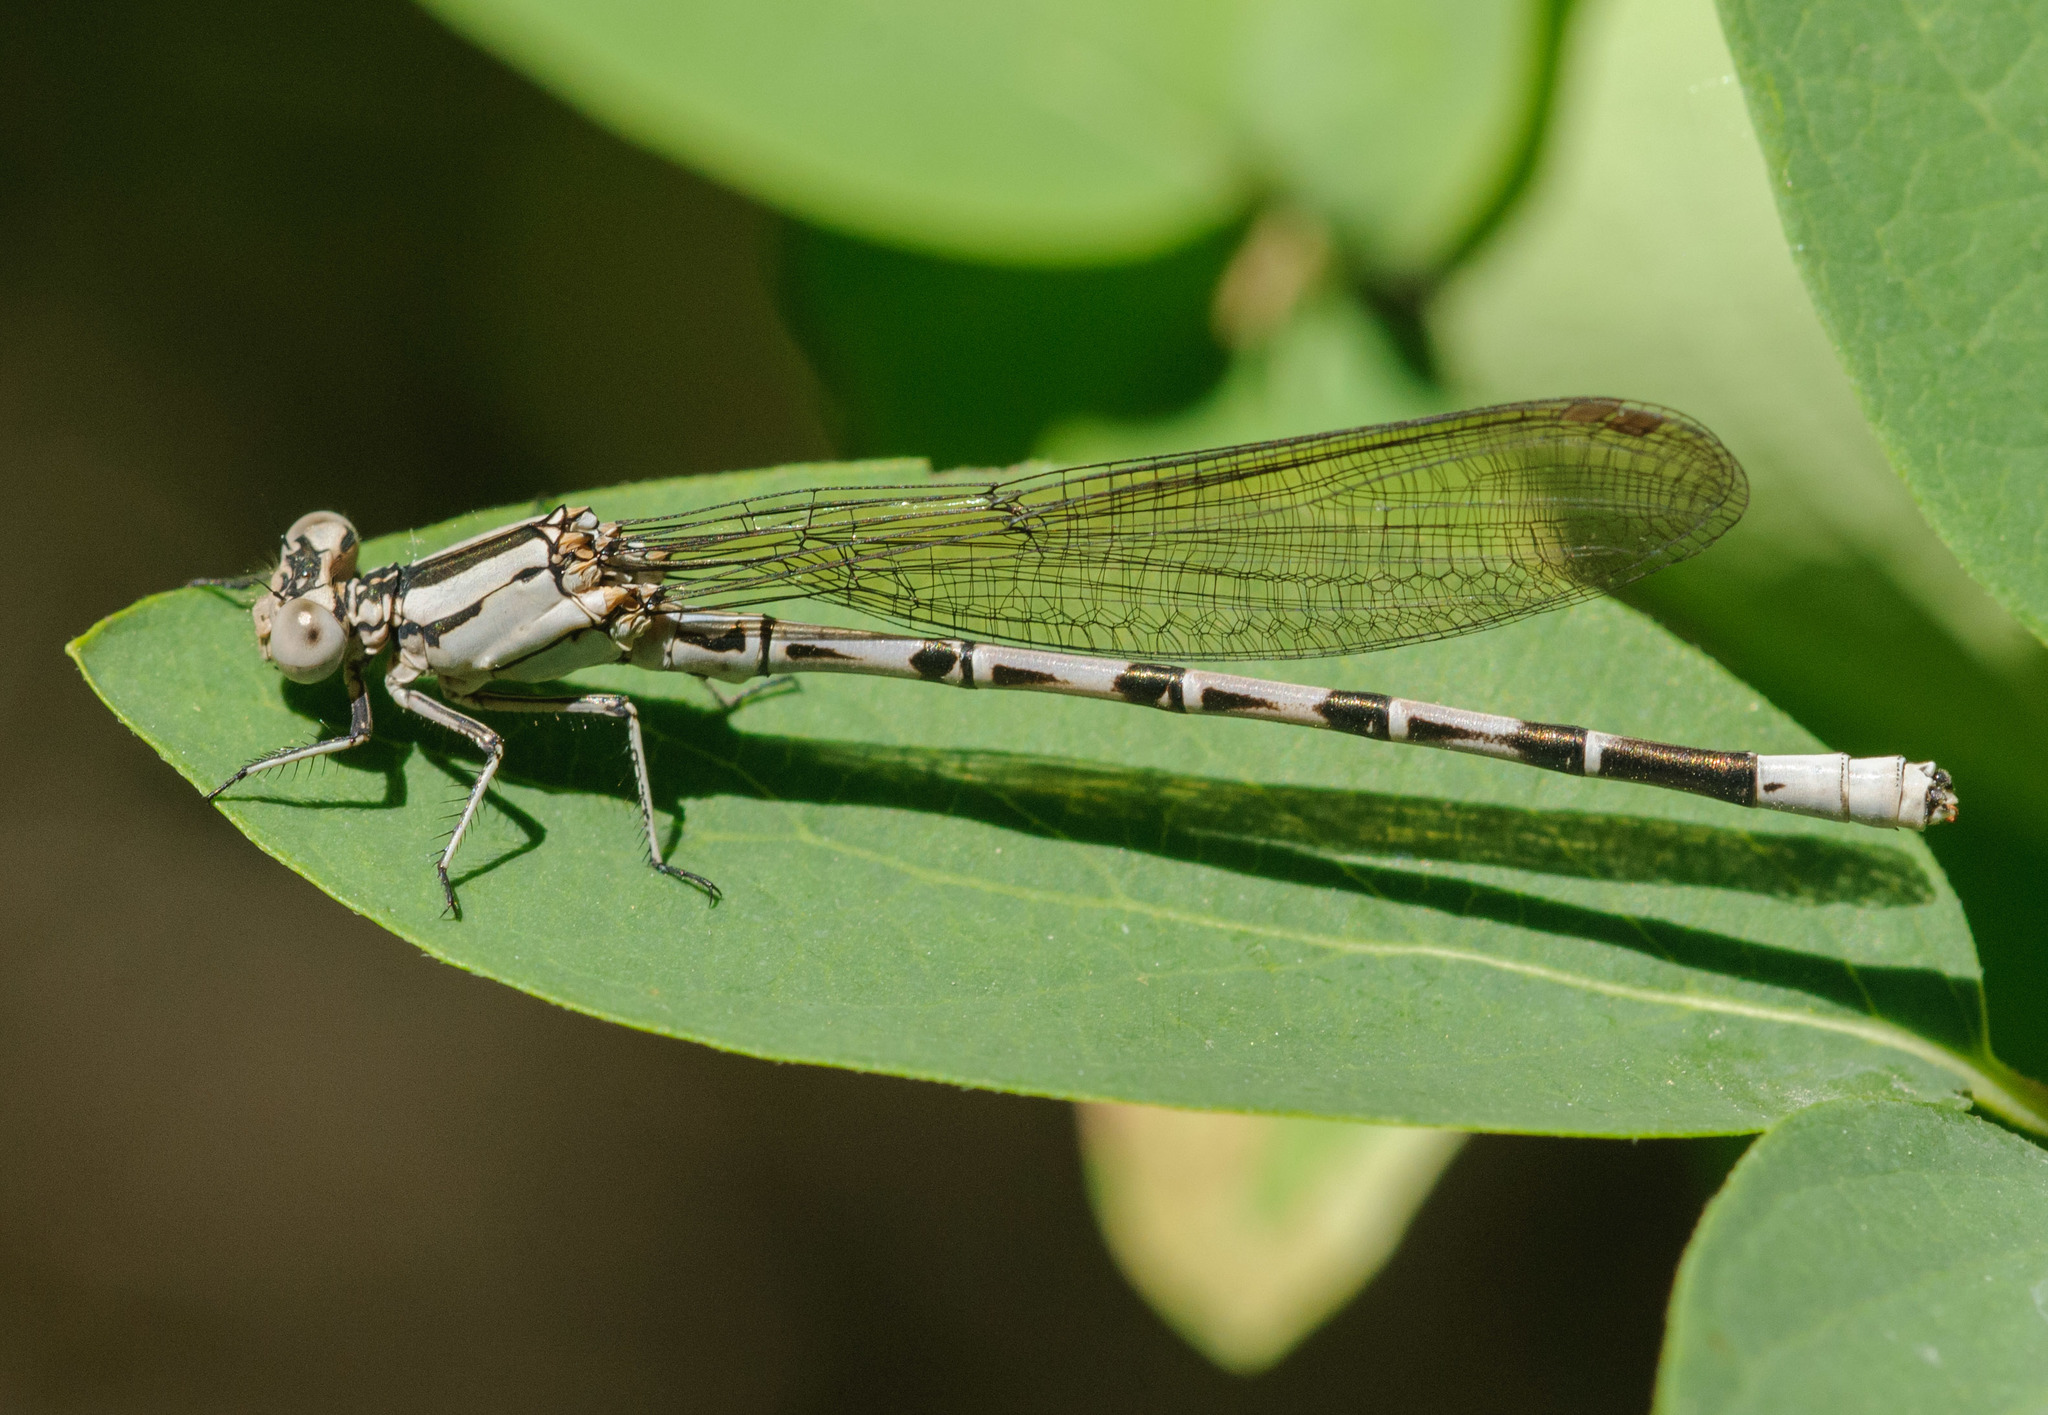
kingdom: Animalia
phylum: Arthropoda
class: Insecta
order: Odonata
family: Coenagrionidae
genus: Argia
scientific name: Argia vivida
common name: Vivid dancer
